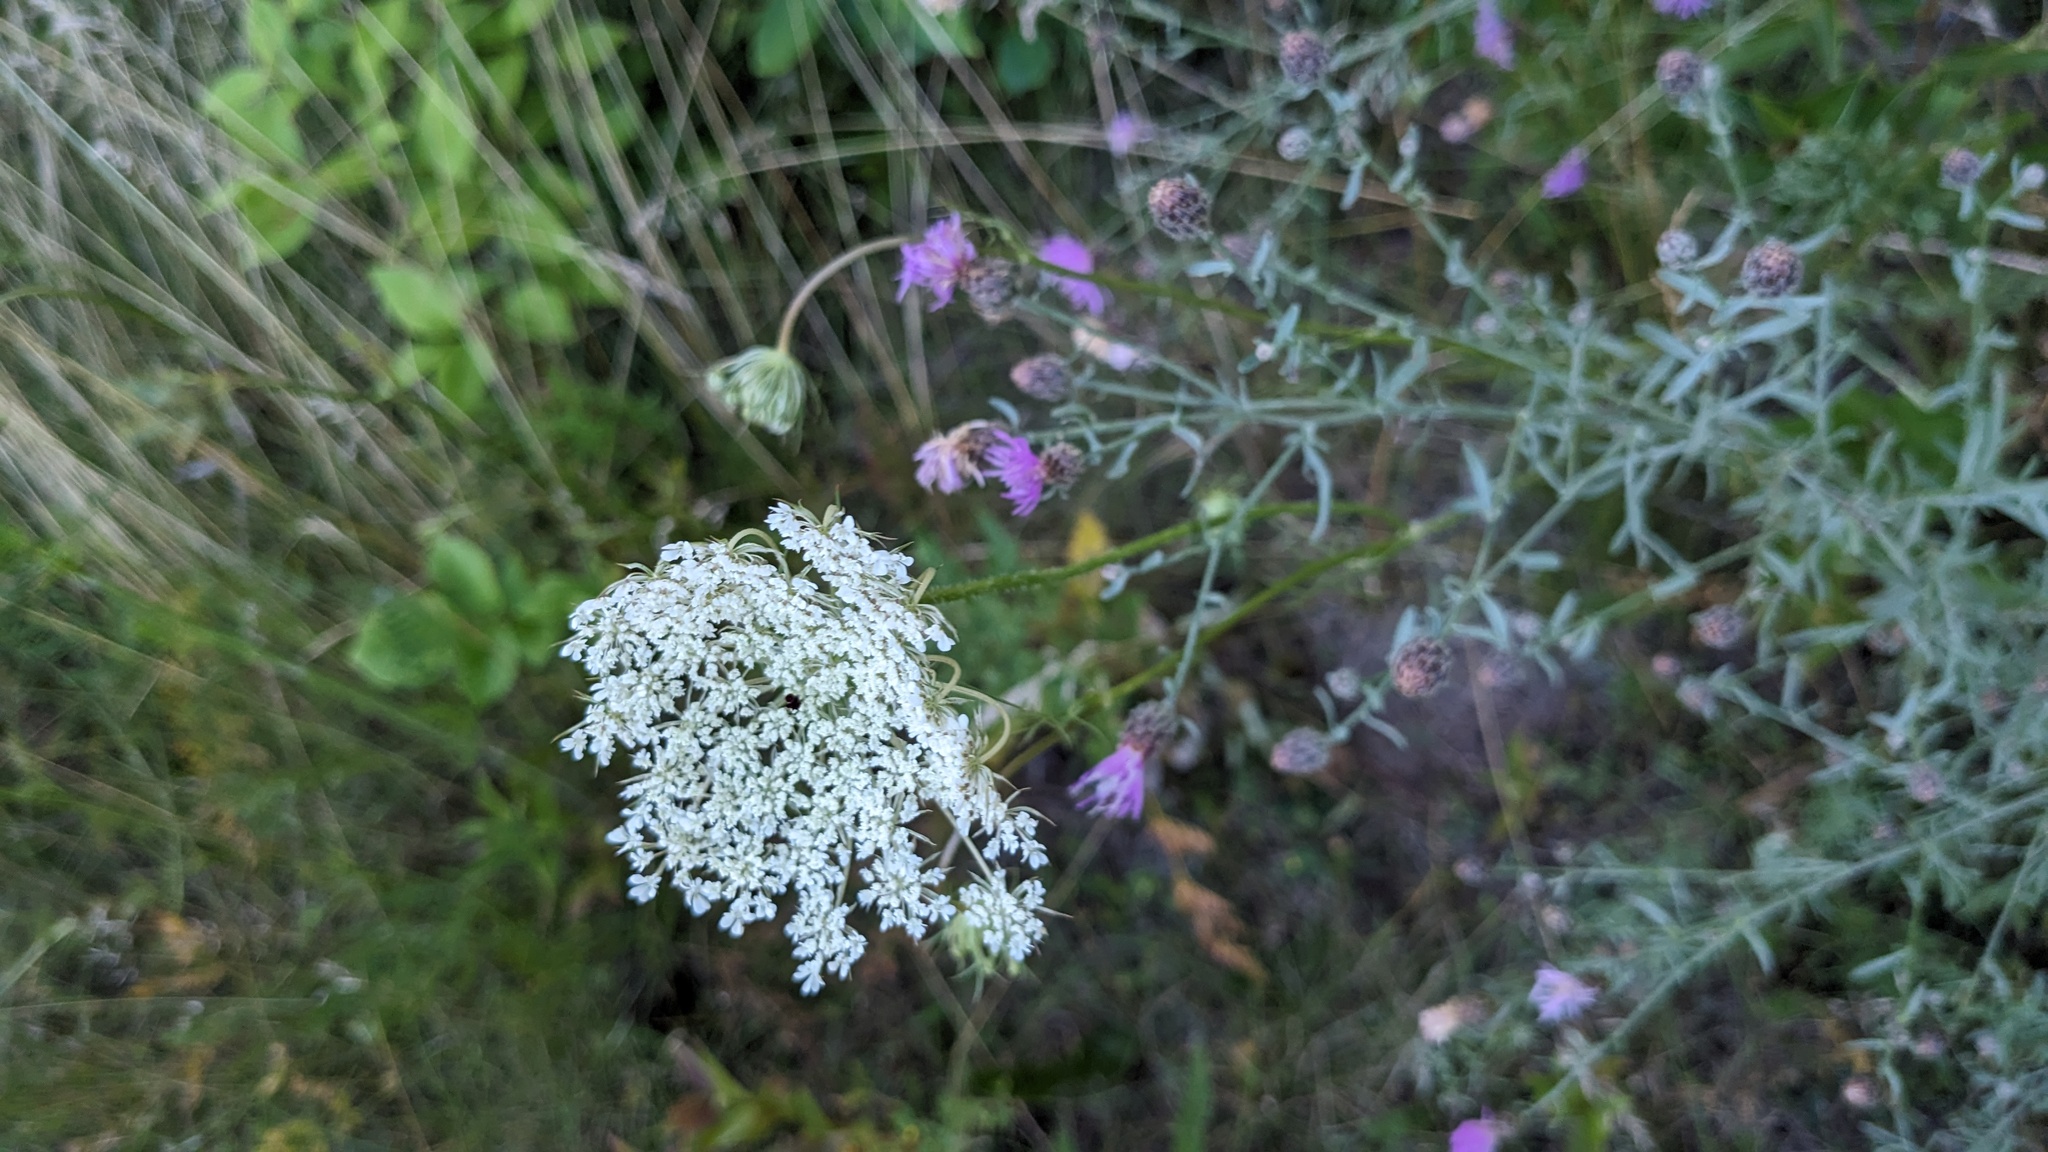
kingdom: Plantae
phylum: Tracheophyta
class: Magnoliopsida
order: Apiales
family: Apiaceae
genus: Daucus
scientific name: Daucus carota
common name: Wild carrot
